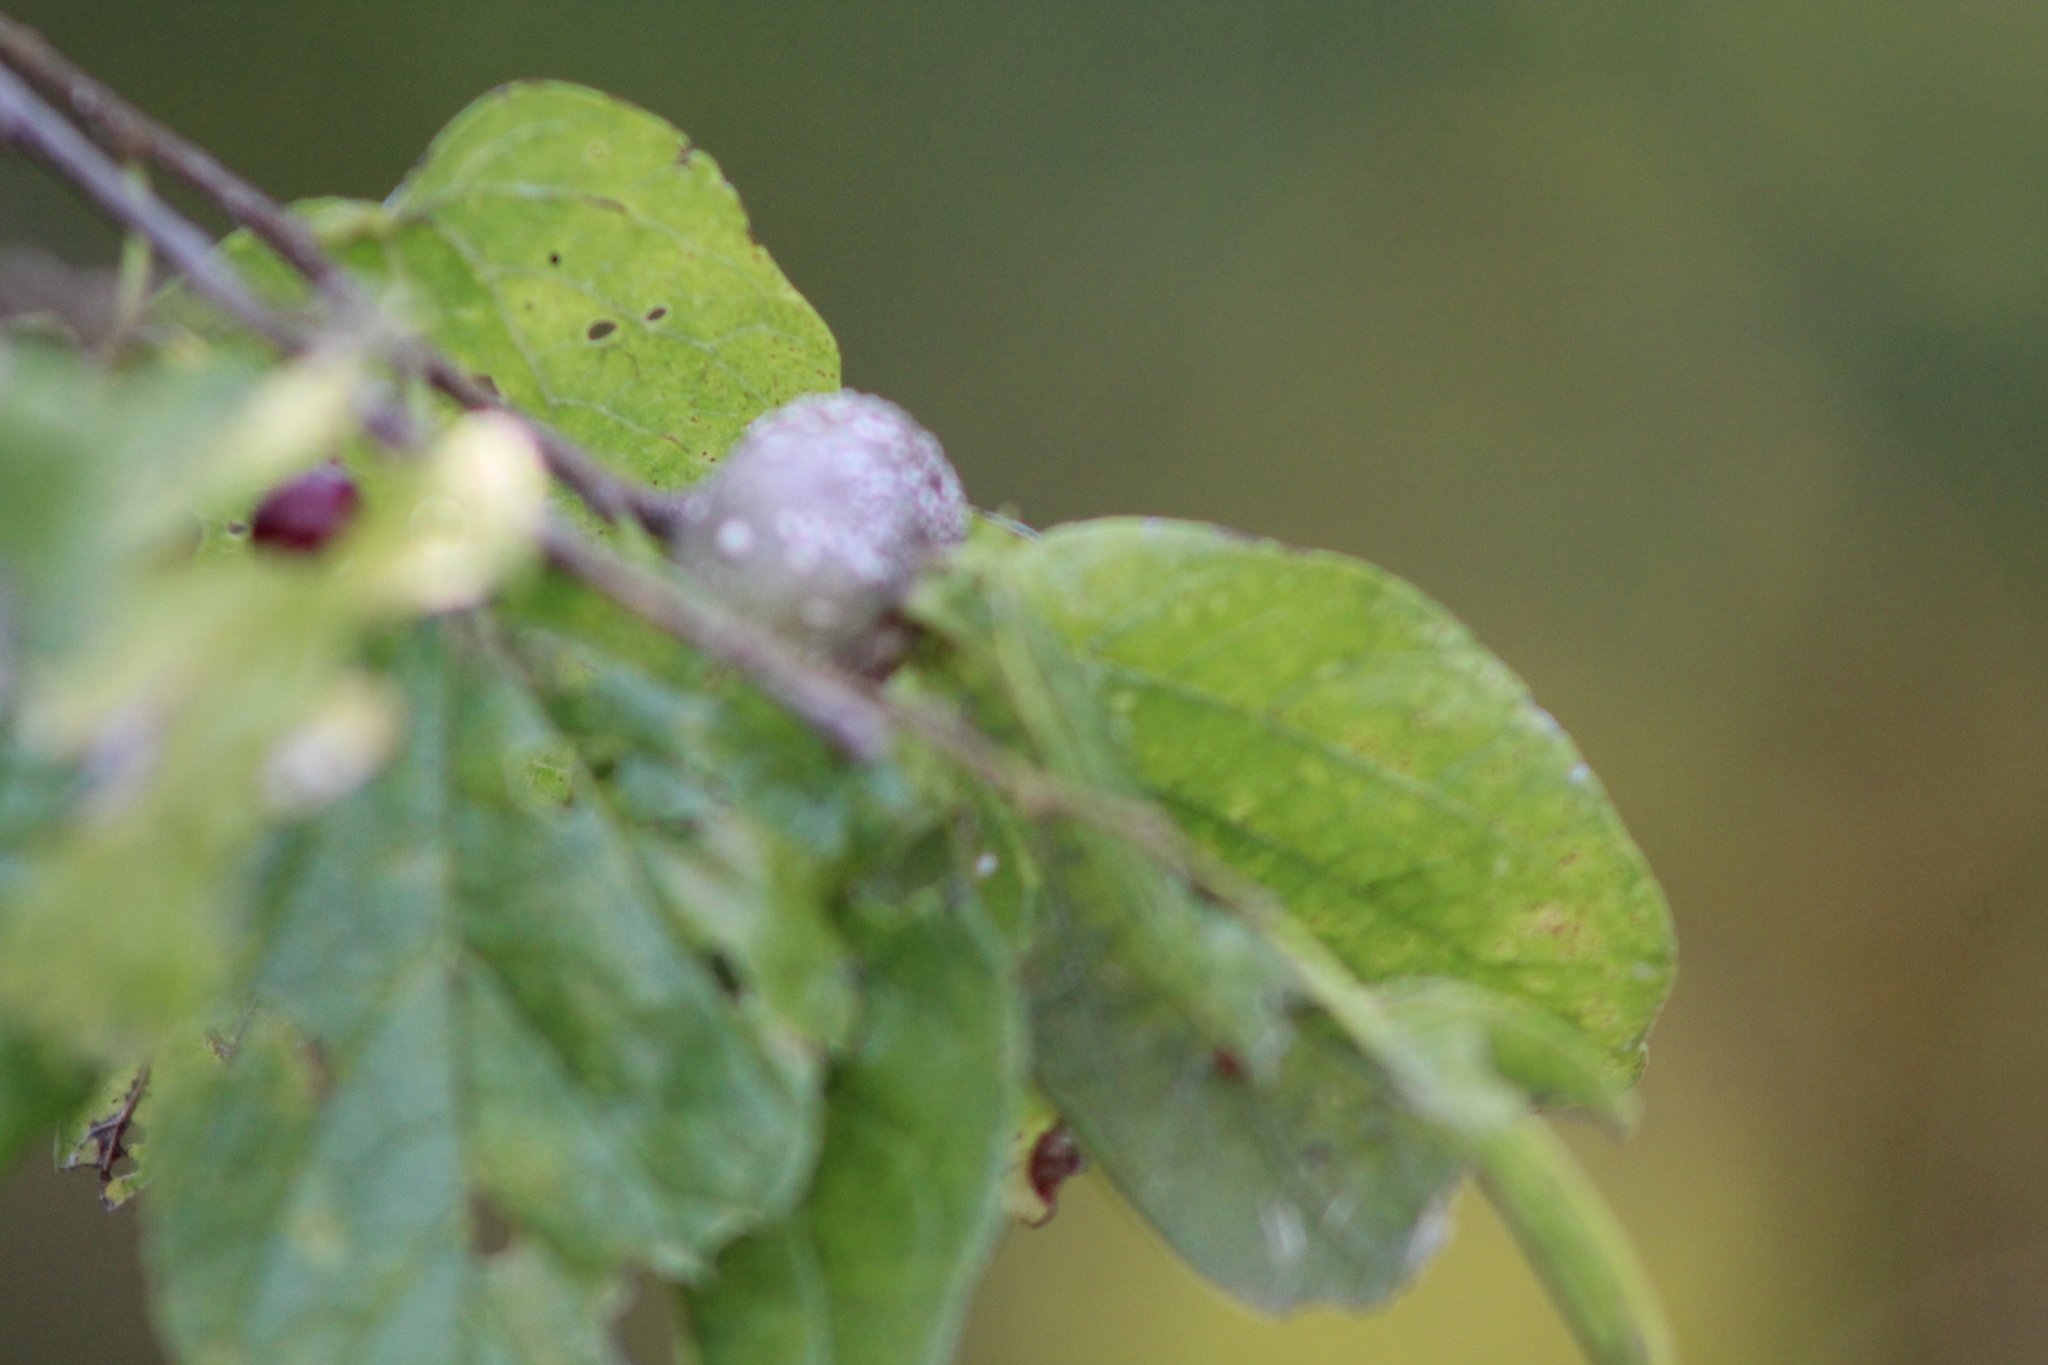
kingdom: Animalia
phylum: Arthropoda
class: Insecta
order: Hemiptera
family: Aphalaridae
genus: Pachypsylla
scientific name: Pachypsylla venusta
